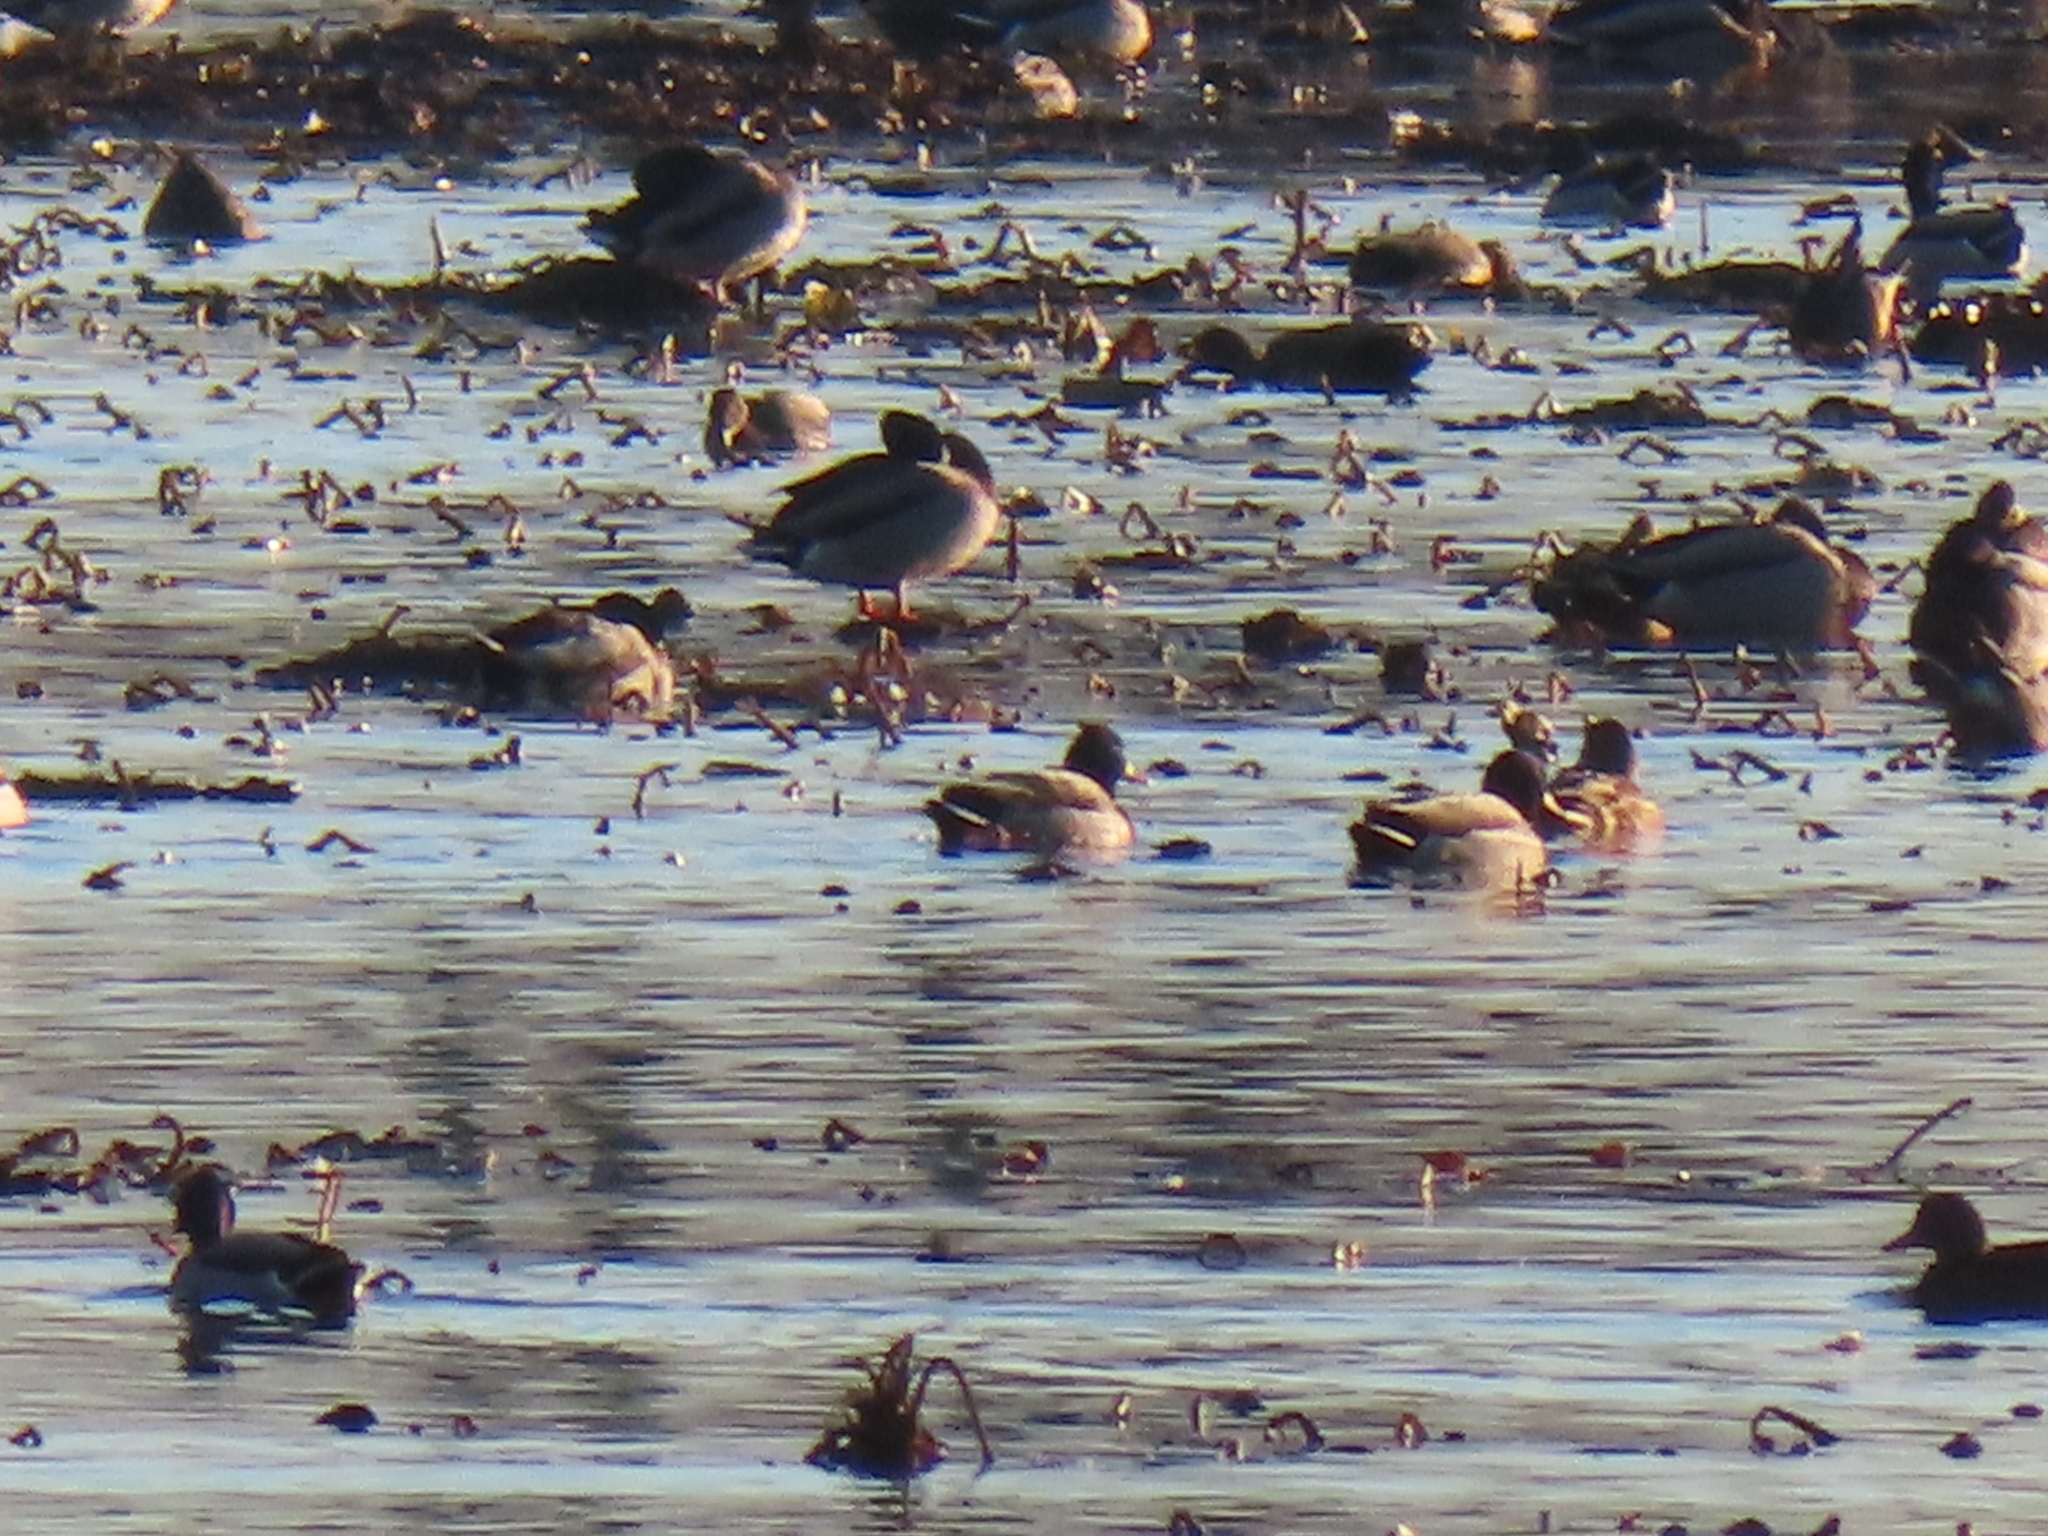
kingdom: Animalia
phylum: Chordata
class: Aves
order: Anseriformes
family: Anatidae
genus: Anas
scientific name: Anas platyrhynchos
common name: Mallard
